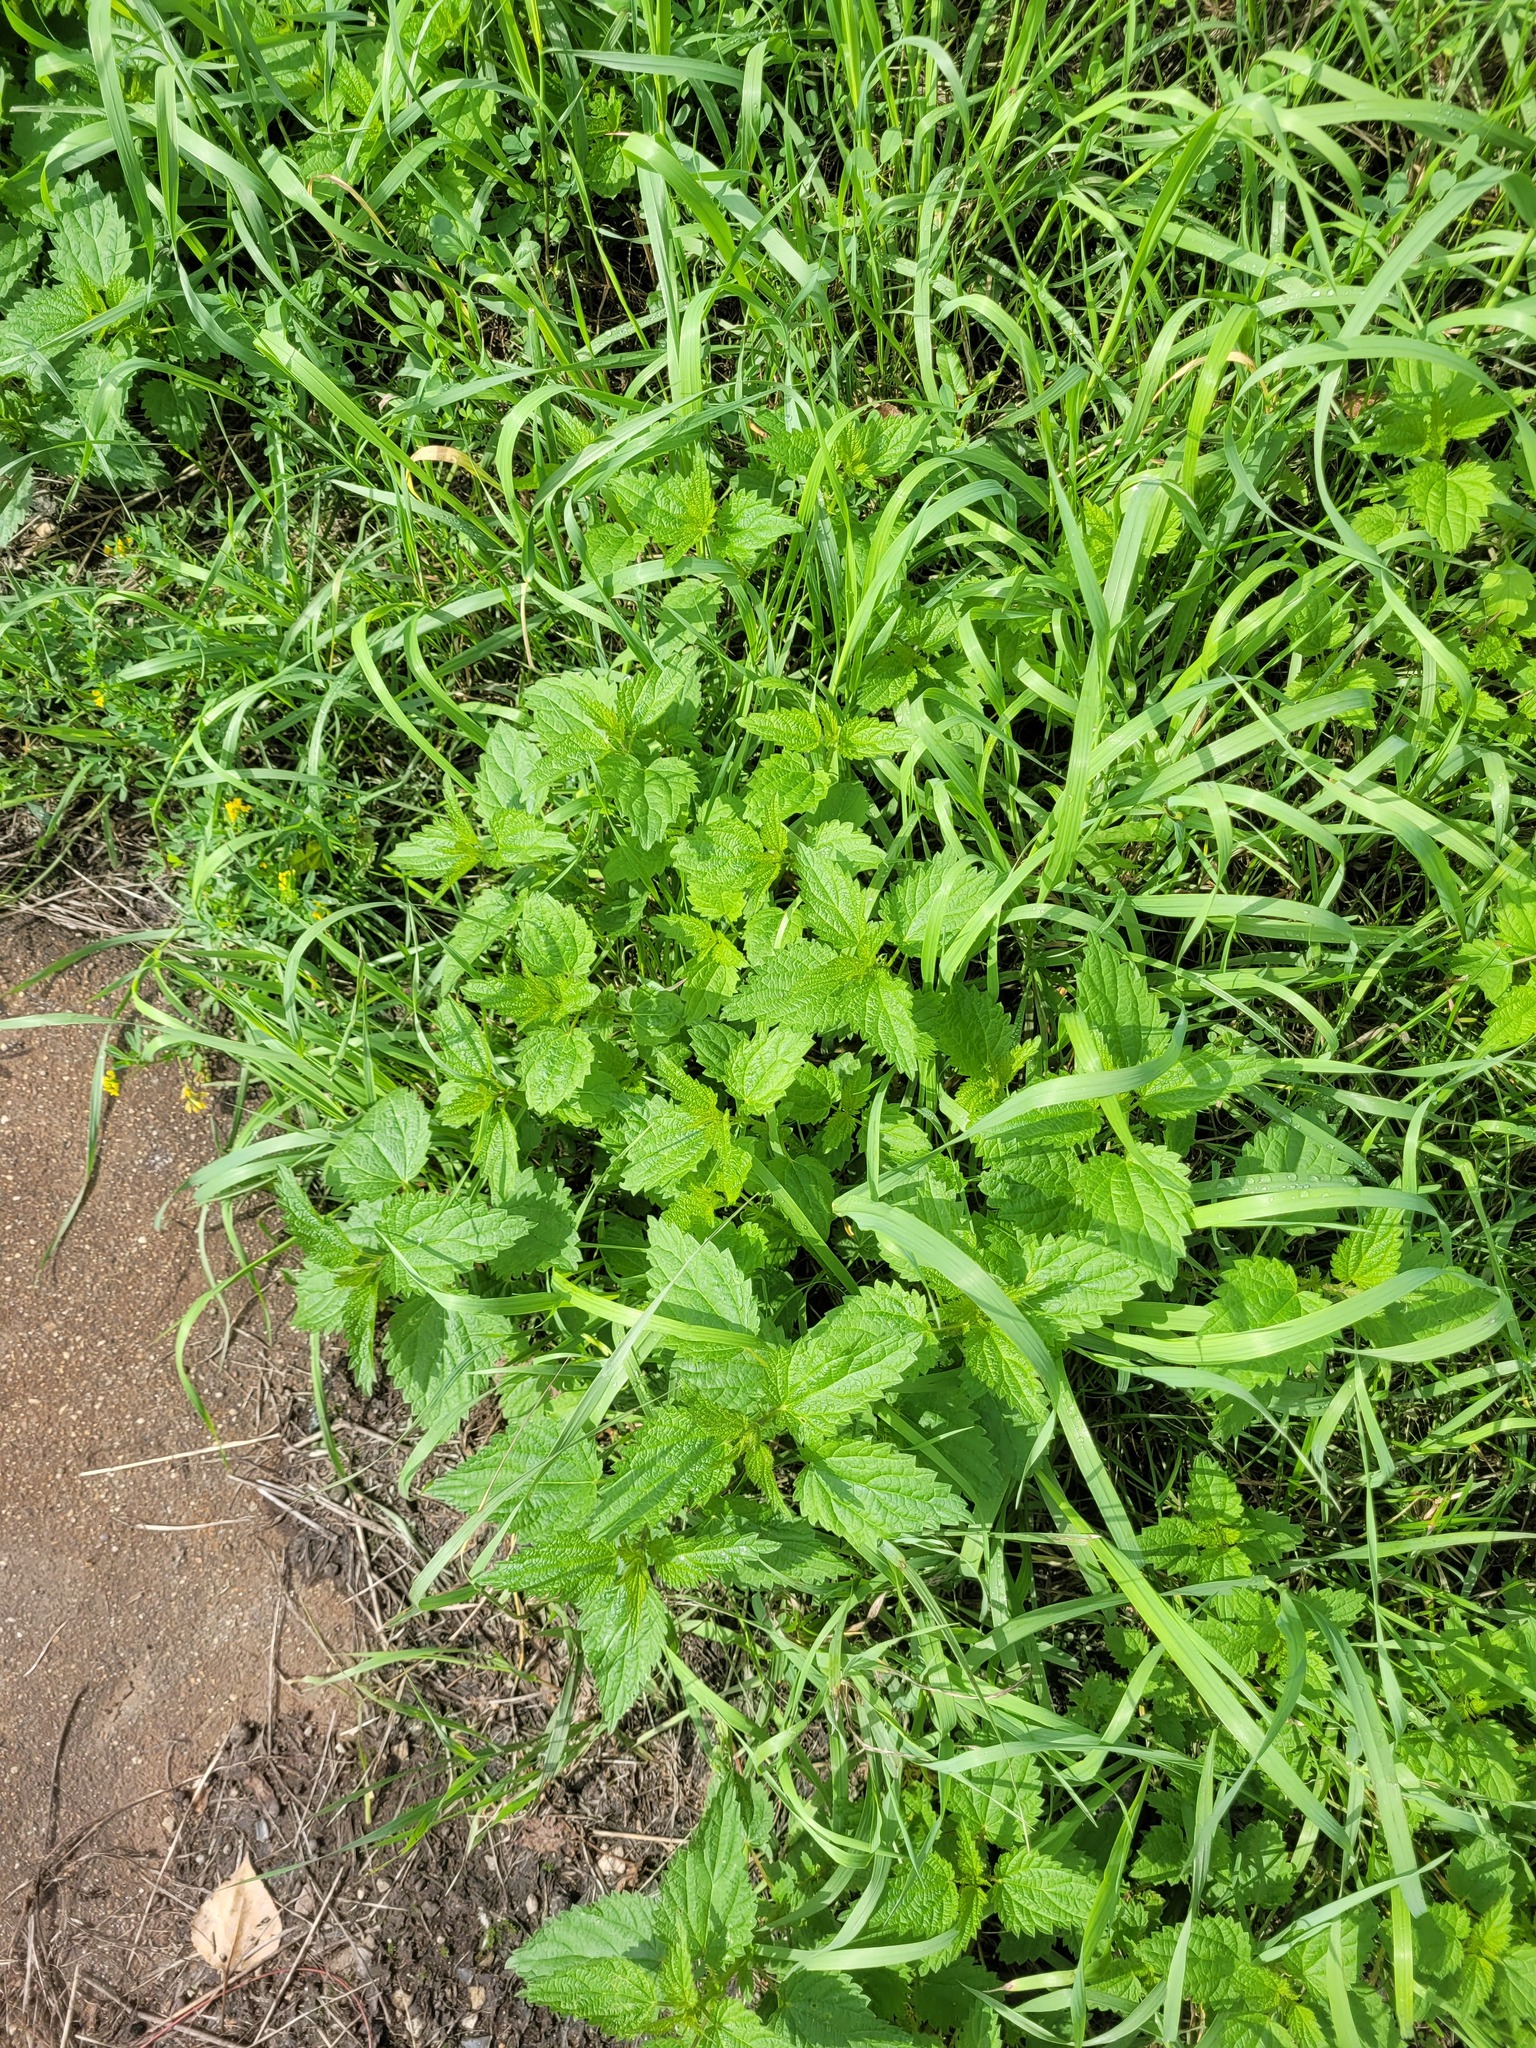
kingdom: Plantae
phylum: Tracheophyta
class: Magnoliopsida
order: Rosales
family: Urticaceae
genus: Urtica
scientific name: Urtica dioica
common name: Common nettle
